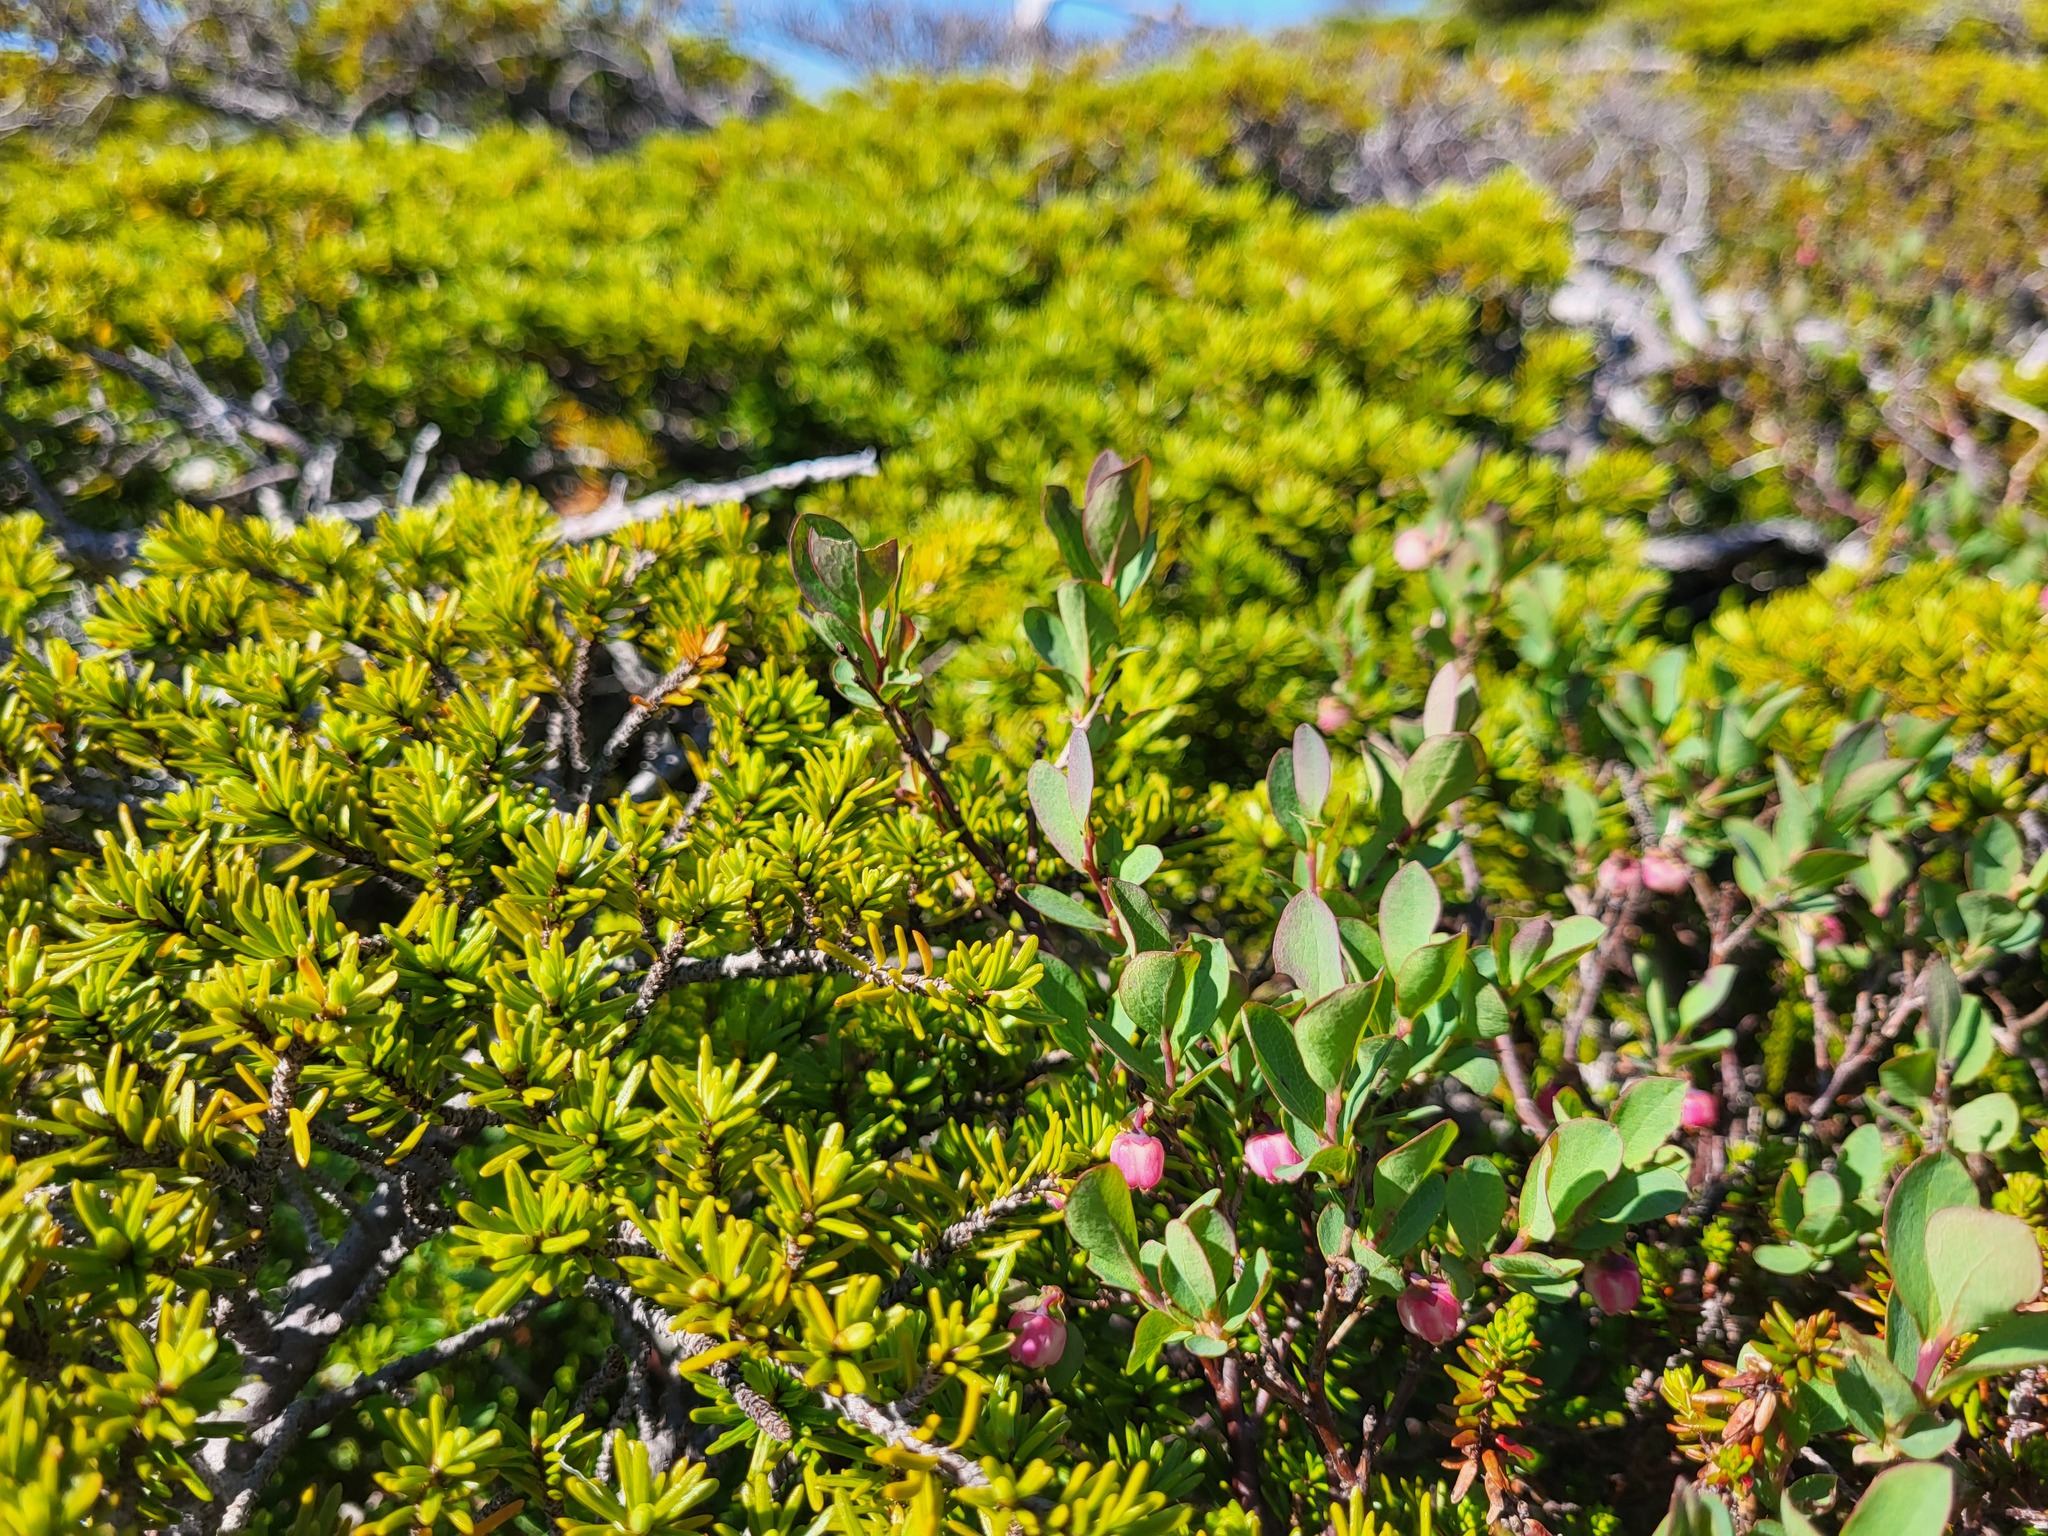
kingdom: Plantae
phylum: Tracheophyta
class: Magnoliopsida
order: Ericales
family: Ericaceae
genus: Vaccinium
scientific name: Vaccinium uliginosum
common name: Bog bilberry
